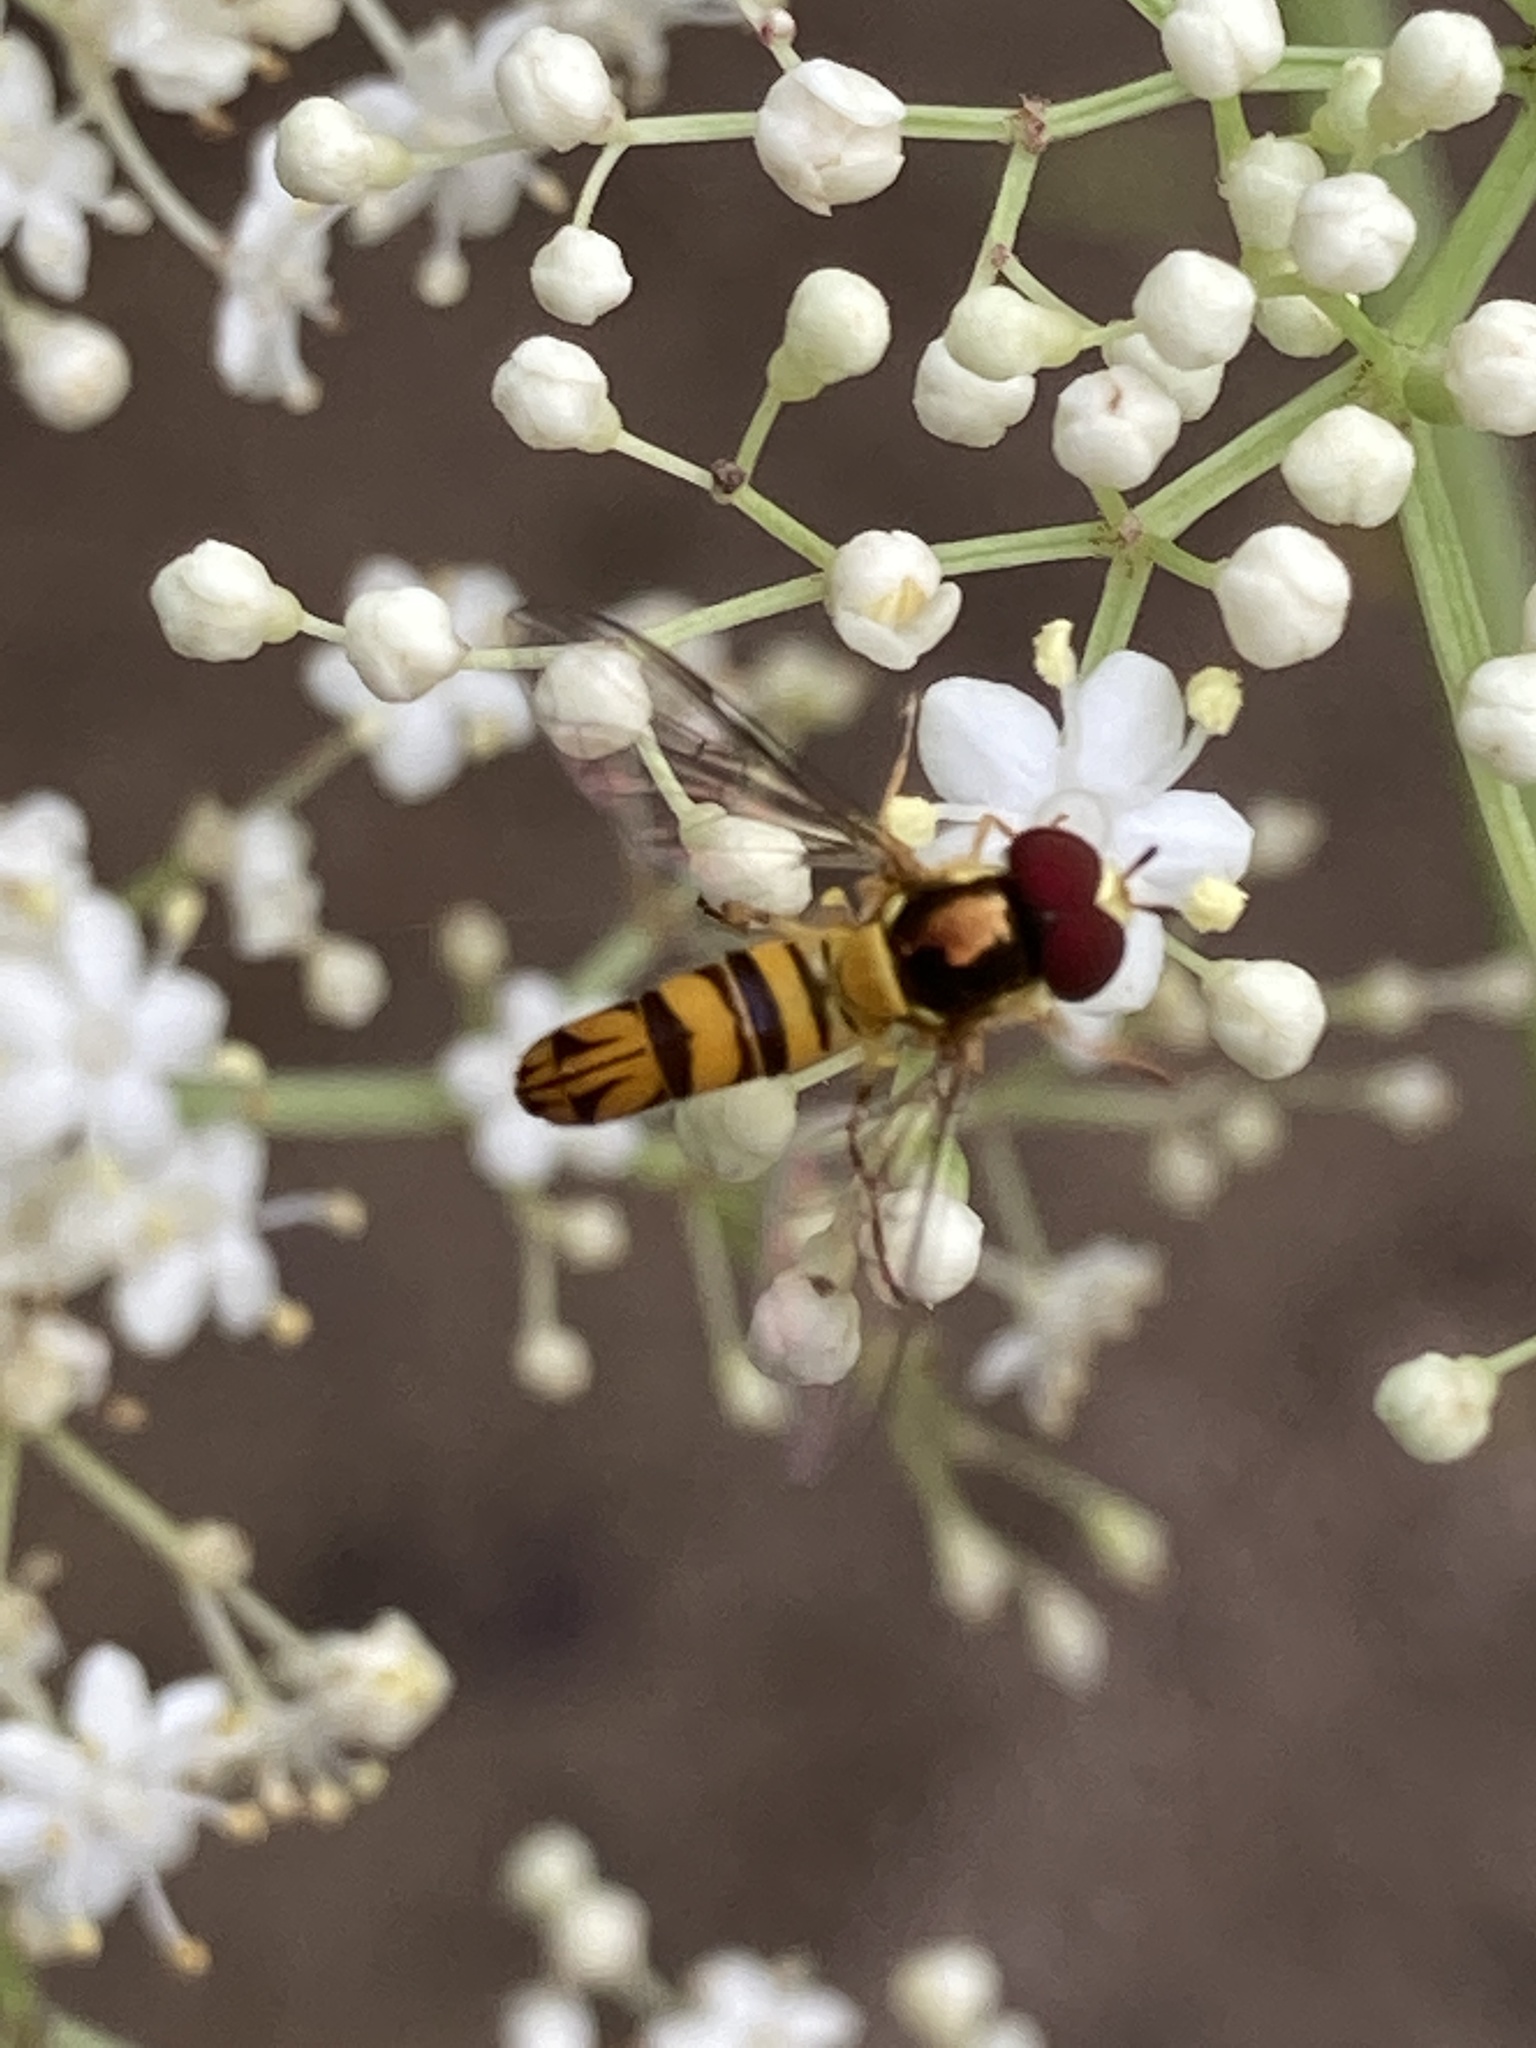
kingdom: Animalia
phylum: Arthropoda
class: Insecta
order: Diptera
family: Syrphidae
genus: Allograpta
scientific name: Allograpta obliqua
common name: Common oblique syrphid
